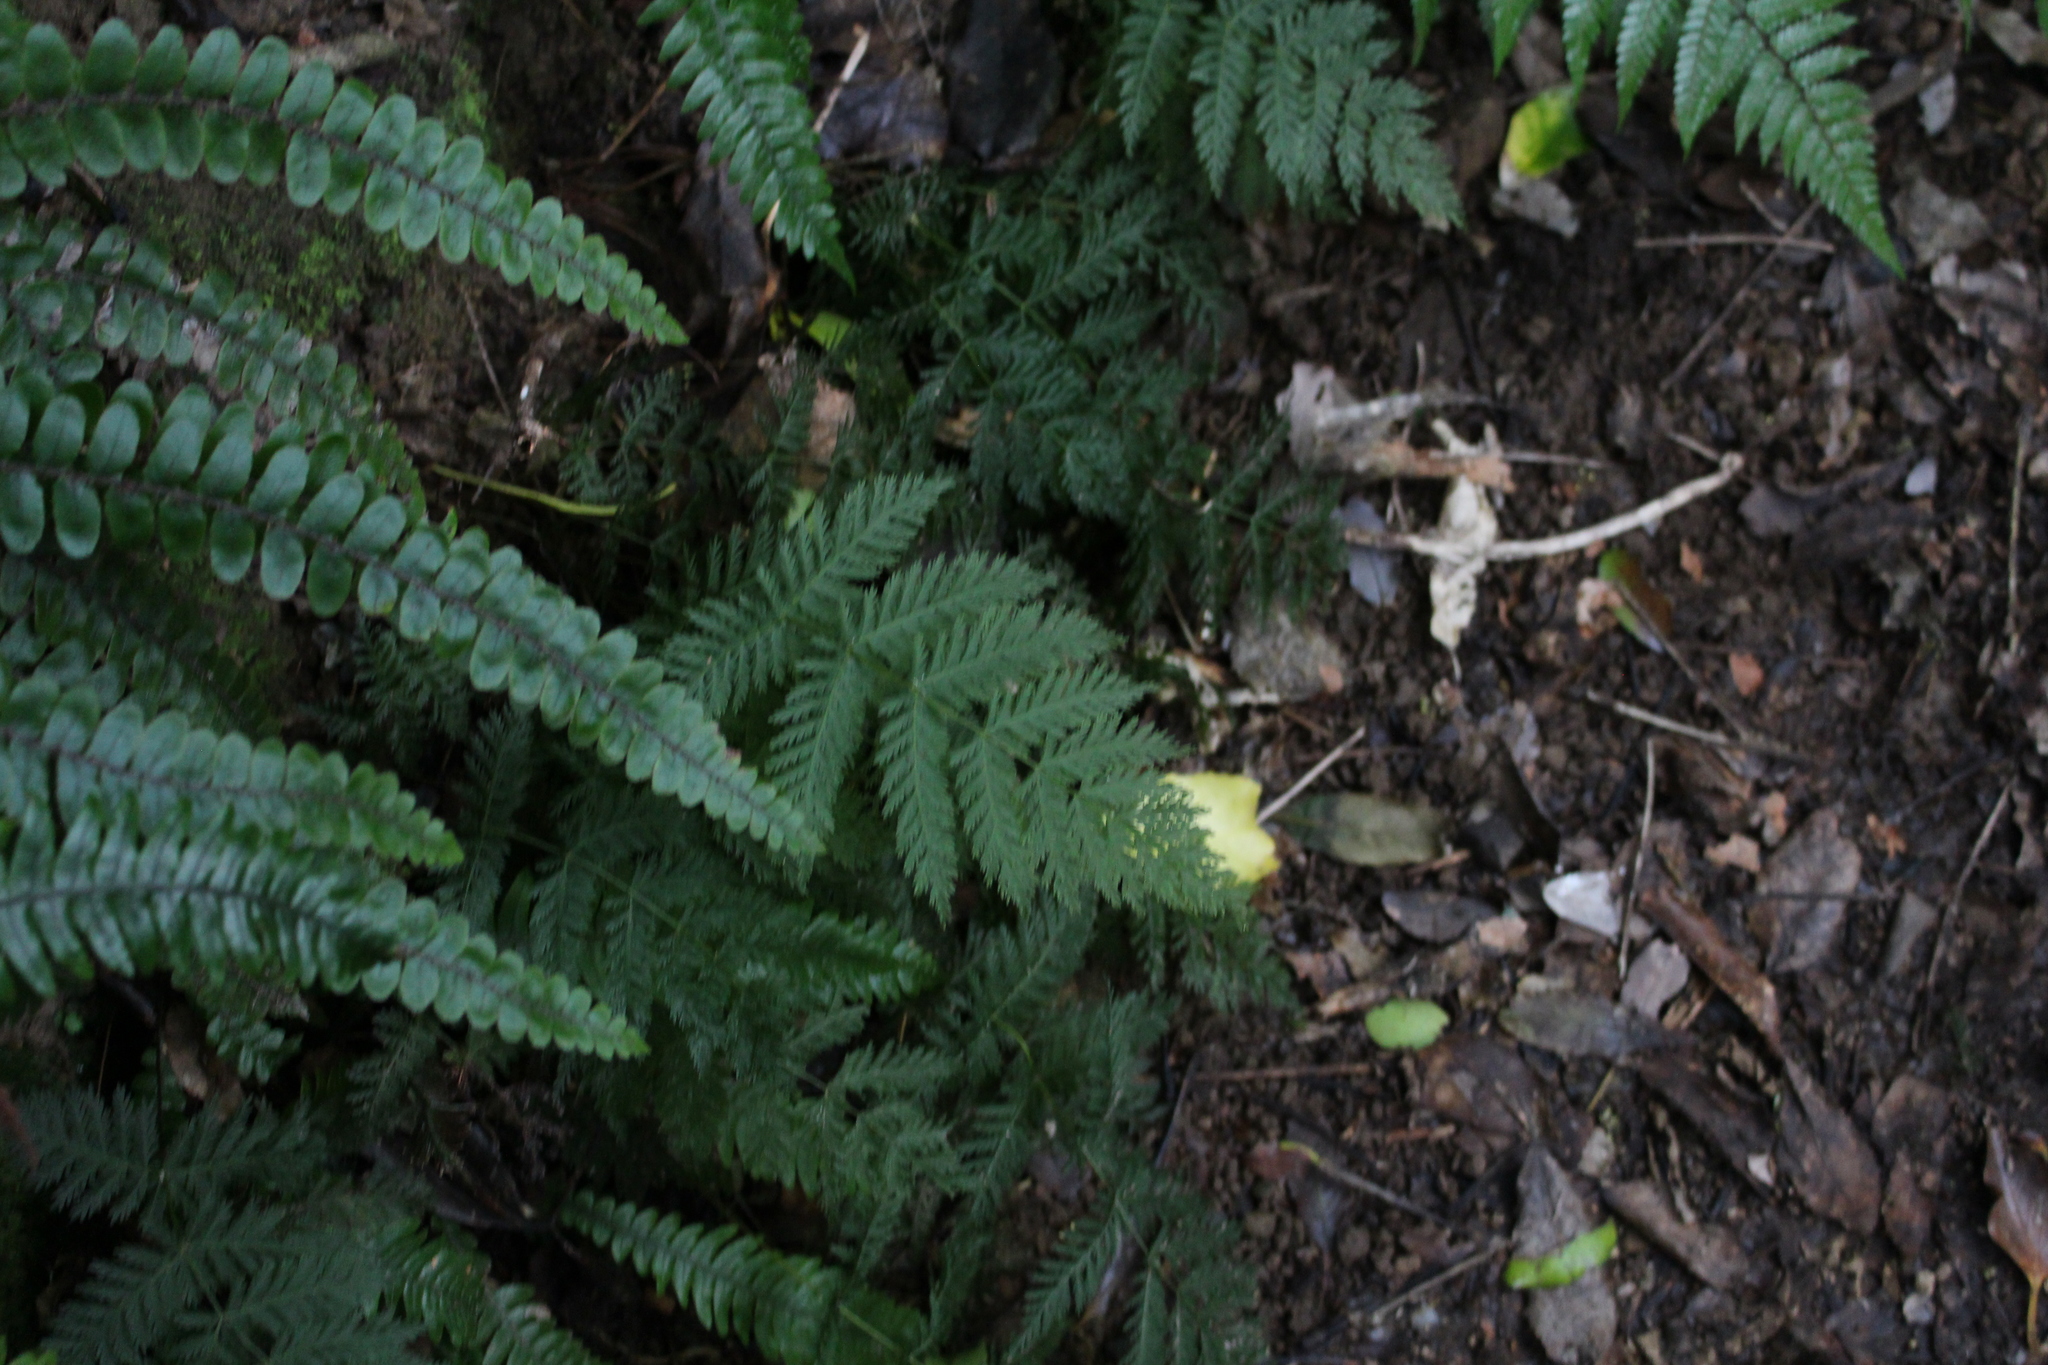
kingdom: Plantae
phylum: Tracheophyta
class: Polypodiopsida
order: Osmundales
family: Osmundaceae
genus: Leptopteris
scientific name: Leptopteris hymenophylloides
